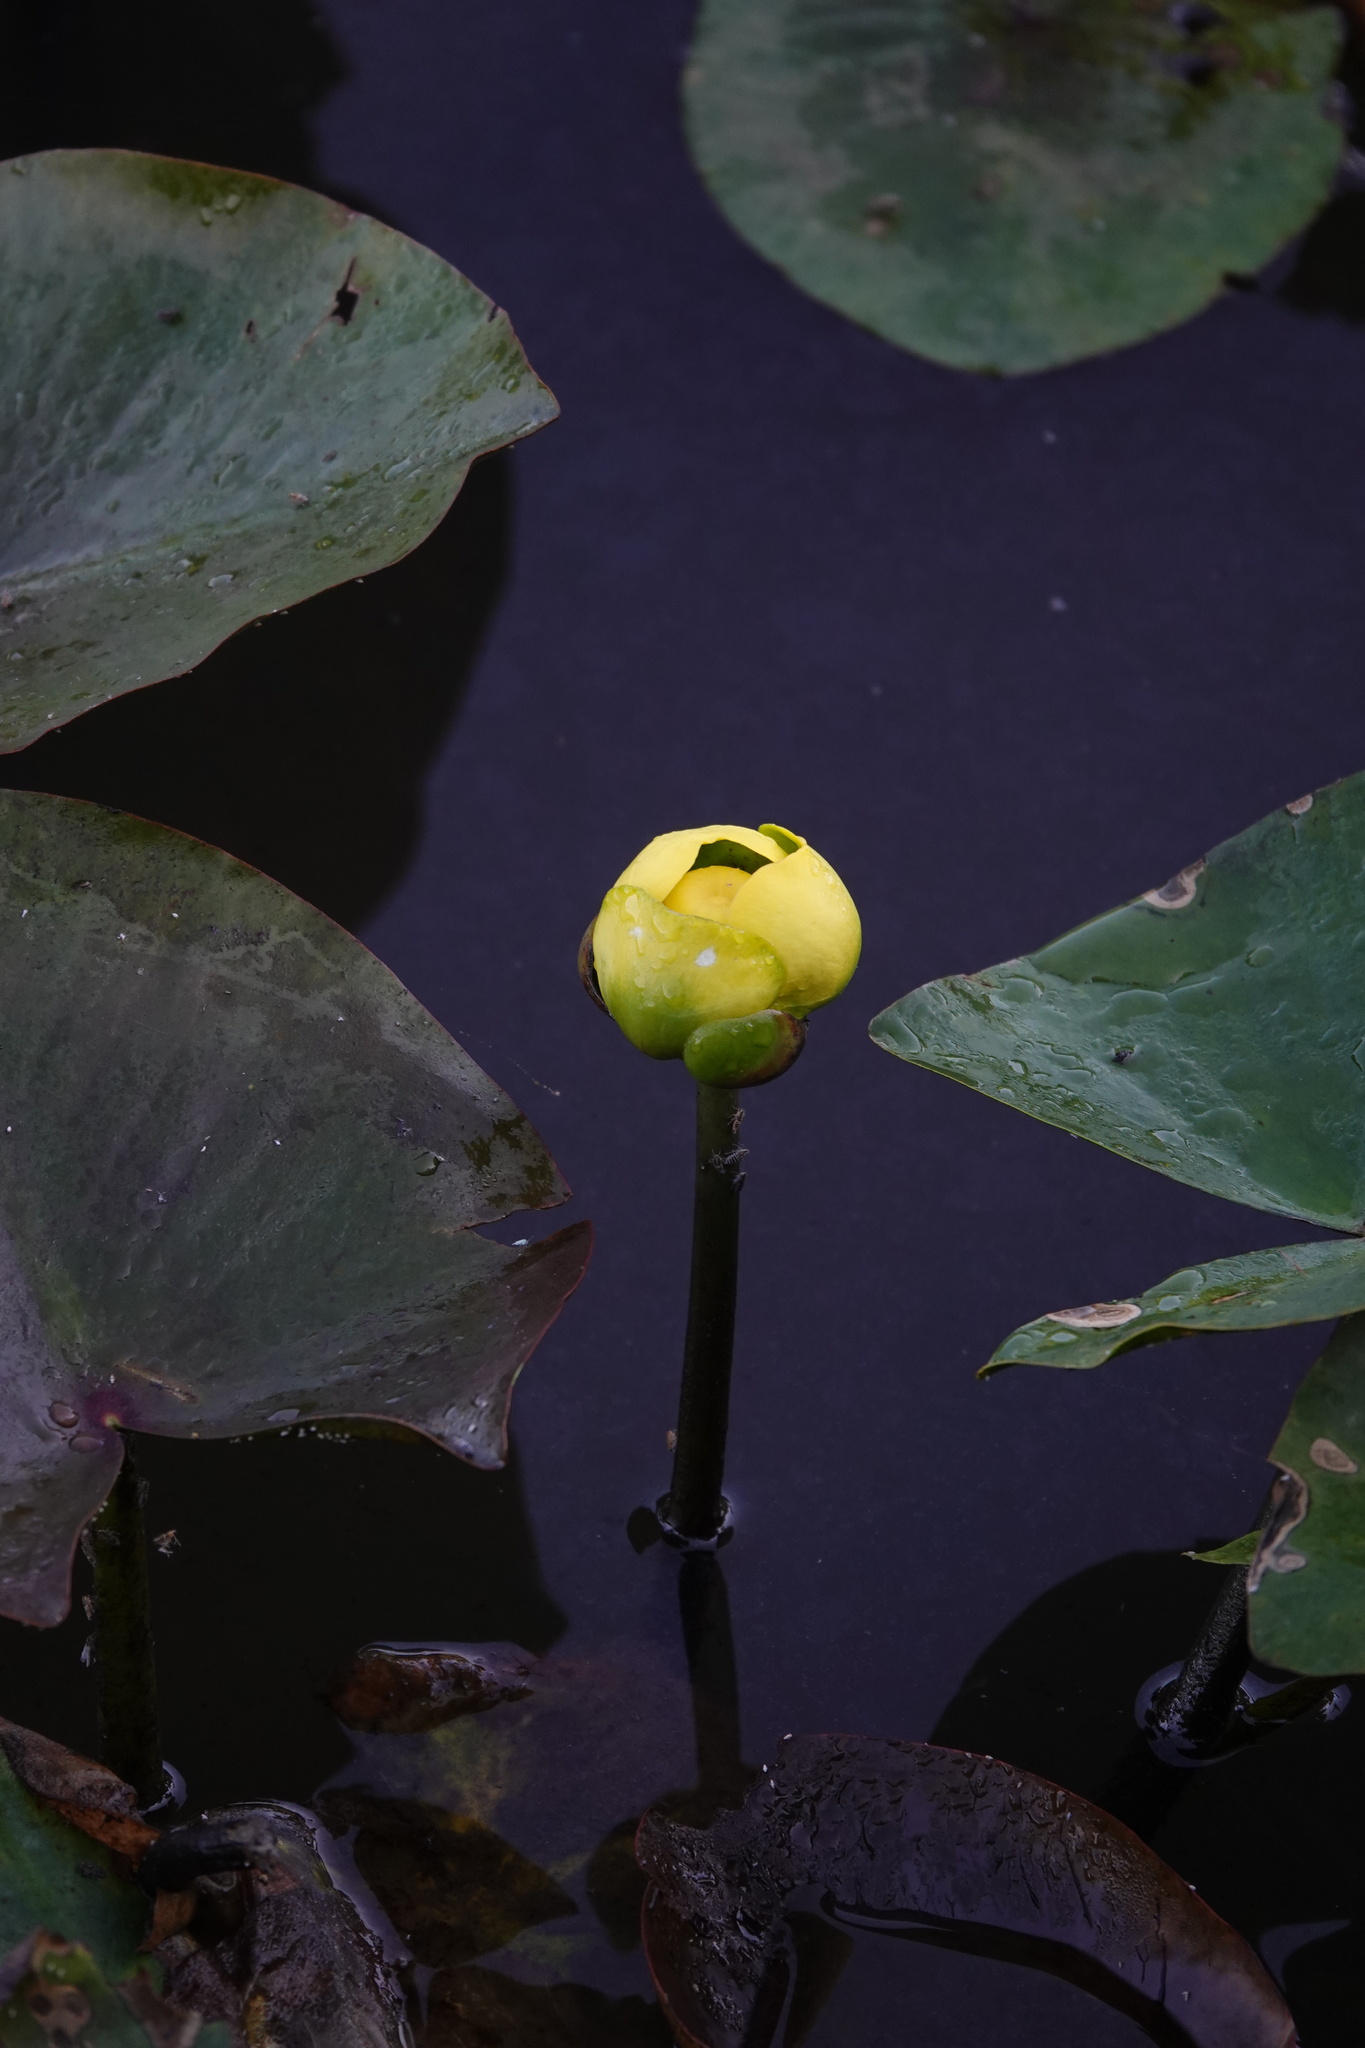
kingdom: Plantae
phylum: Tracheophyta
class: Magnoliopsida
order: Nymphaeales
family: Nymphaeaceae
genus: Nuphar
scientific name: Nuphar advena
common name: Spatter-dock
